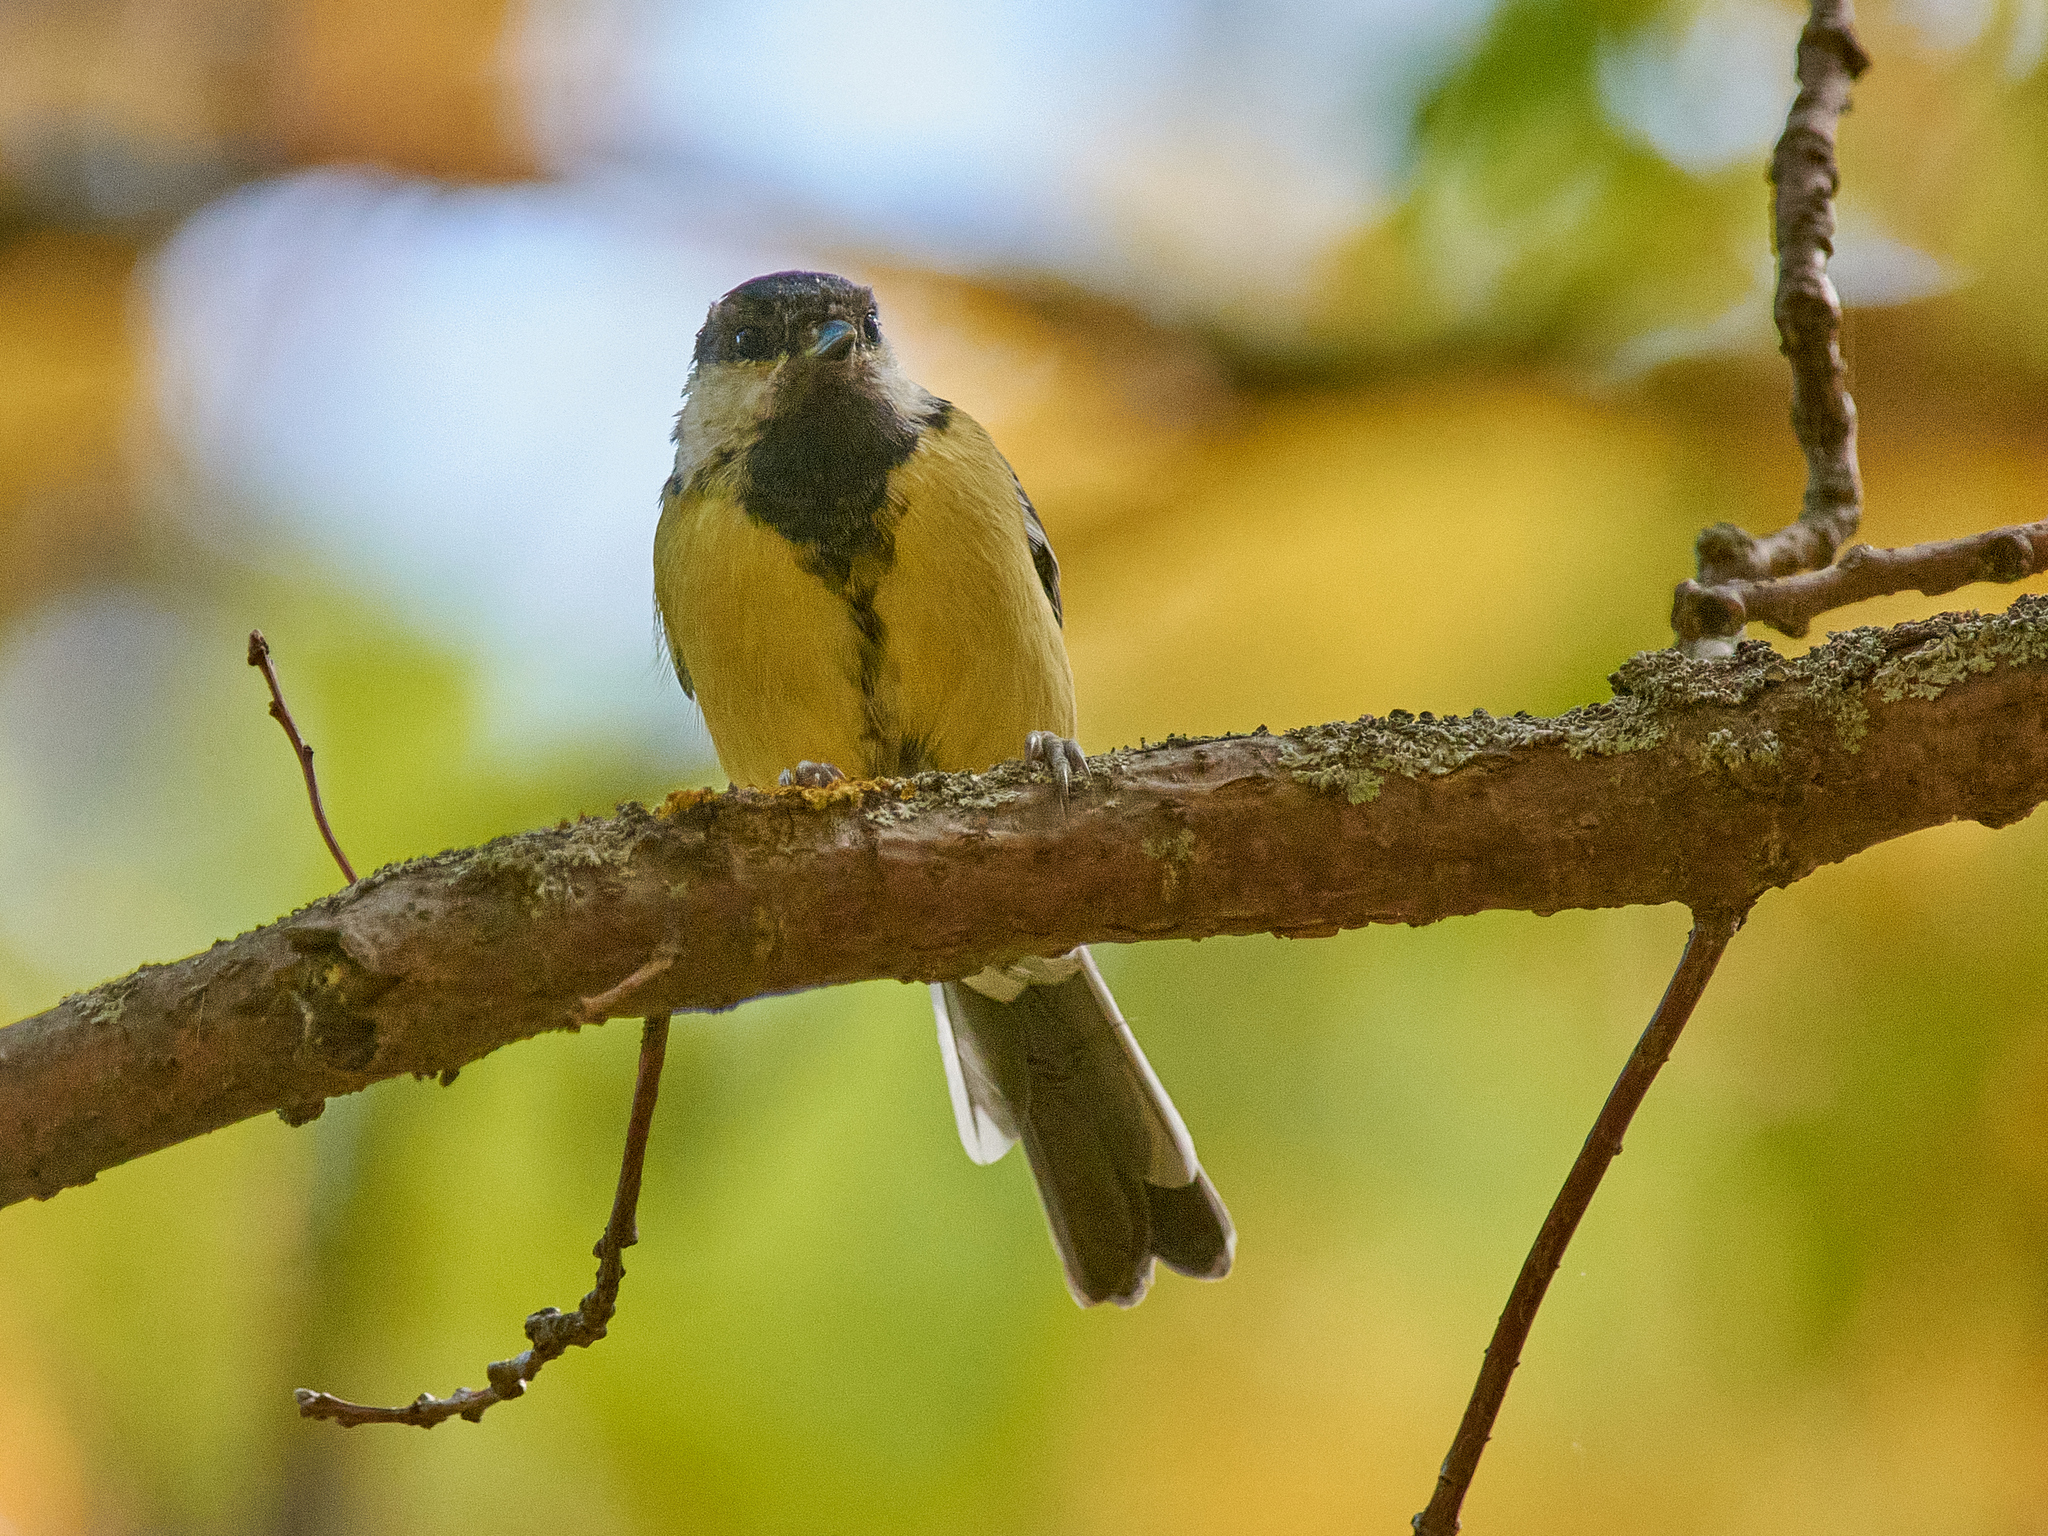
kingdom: Animalia
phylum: Chordata
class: Aves
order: Passeriformes
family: Paridae
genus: Parus
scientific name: Parus major
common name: Great tit
